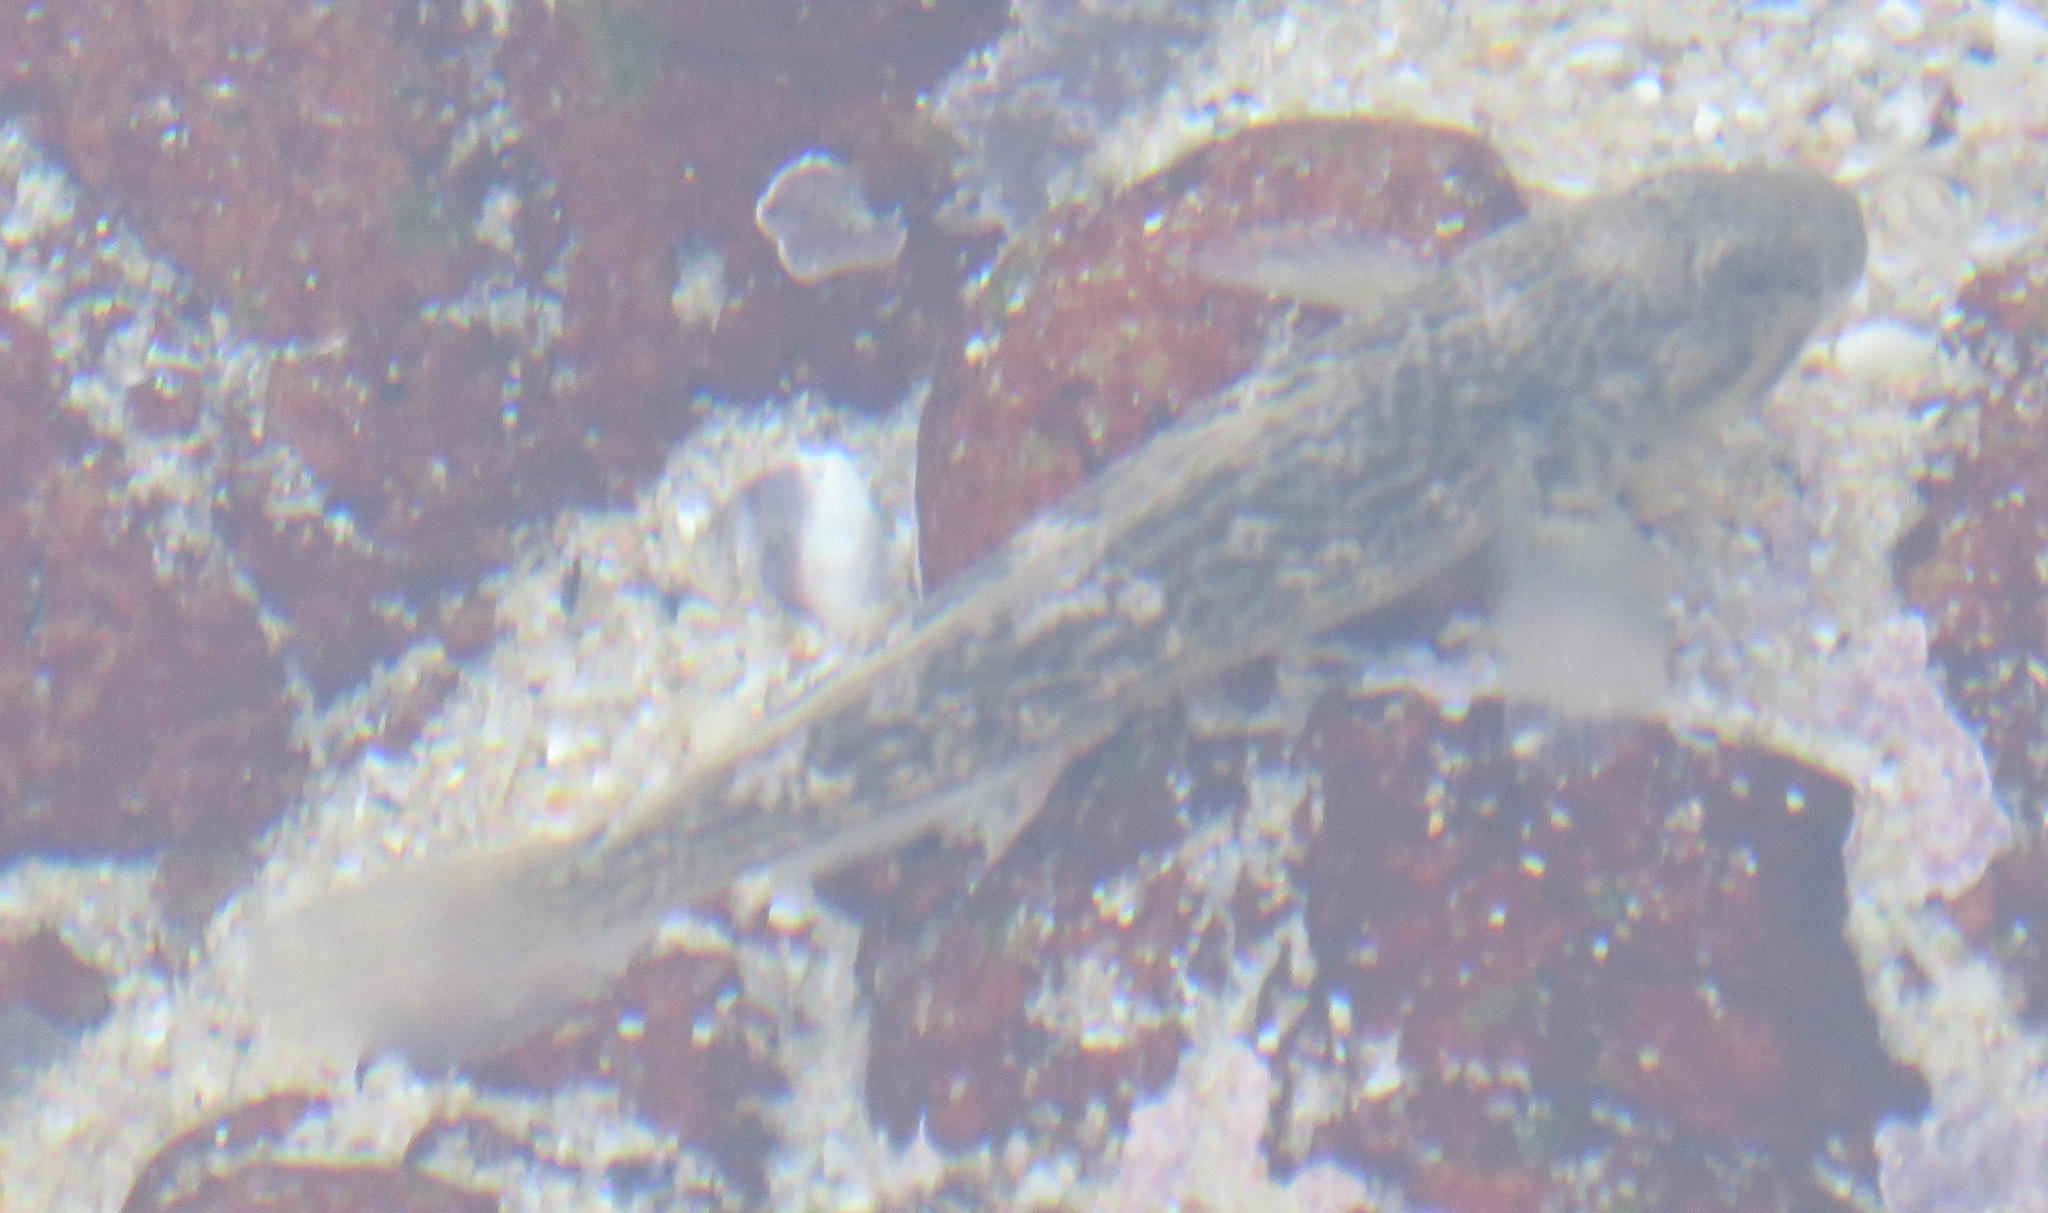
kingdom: Animalia
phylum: Chordata
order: Perciformes
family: Gobiidae
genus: Caffrogobius
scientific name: Caffrogobius caffer
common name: Banded goby
